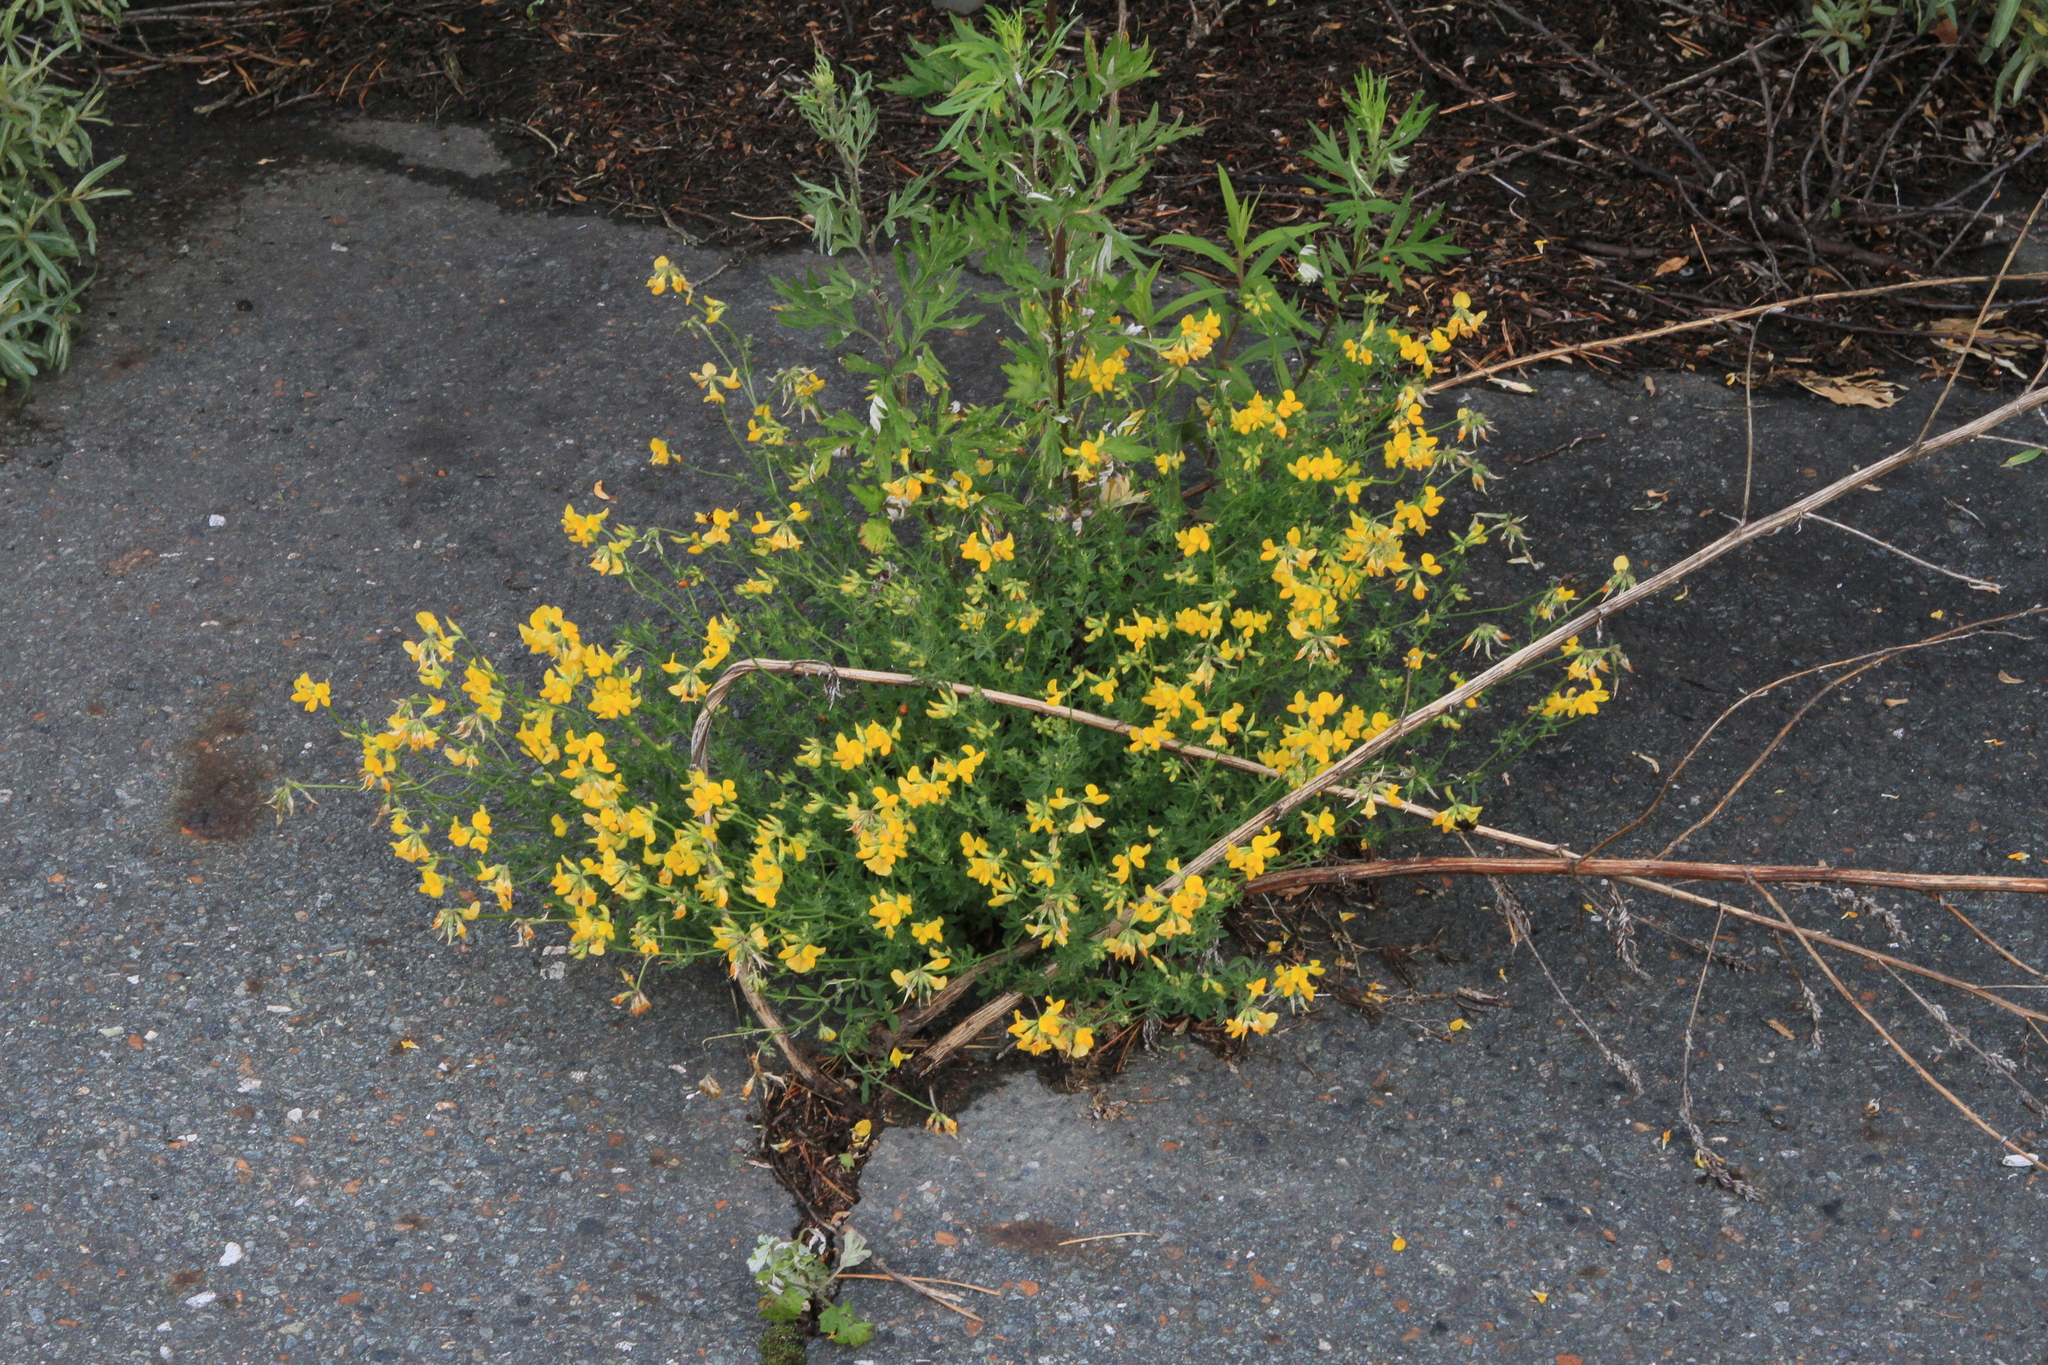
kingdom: Plantae
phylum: Tracheophyta
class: Magnoliopsida
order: Fabales
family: Fabaceae
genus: Lotus
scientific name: Lotus corniculatus
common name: Common bird's-foot-trefoil
